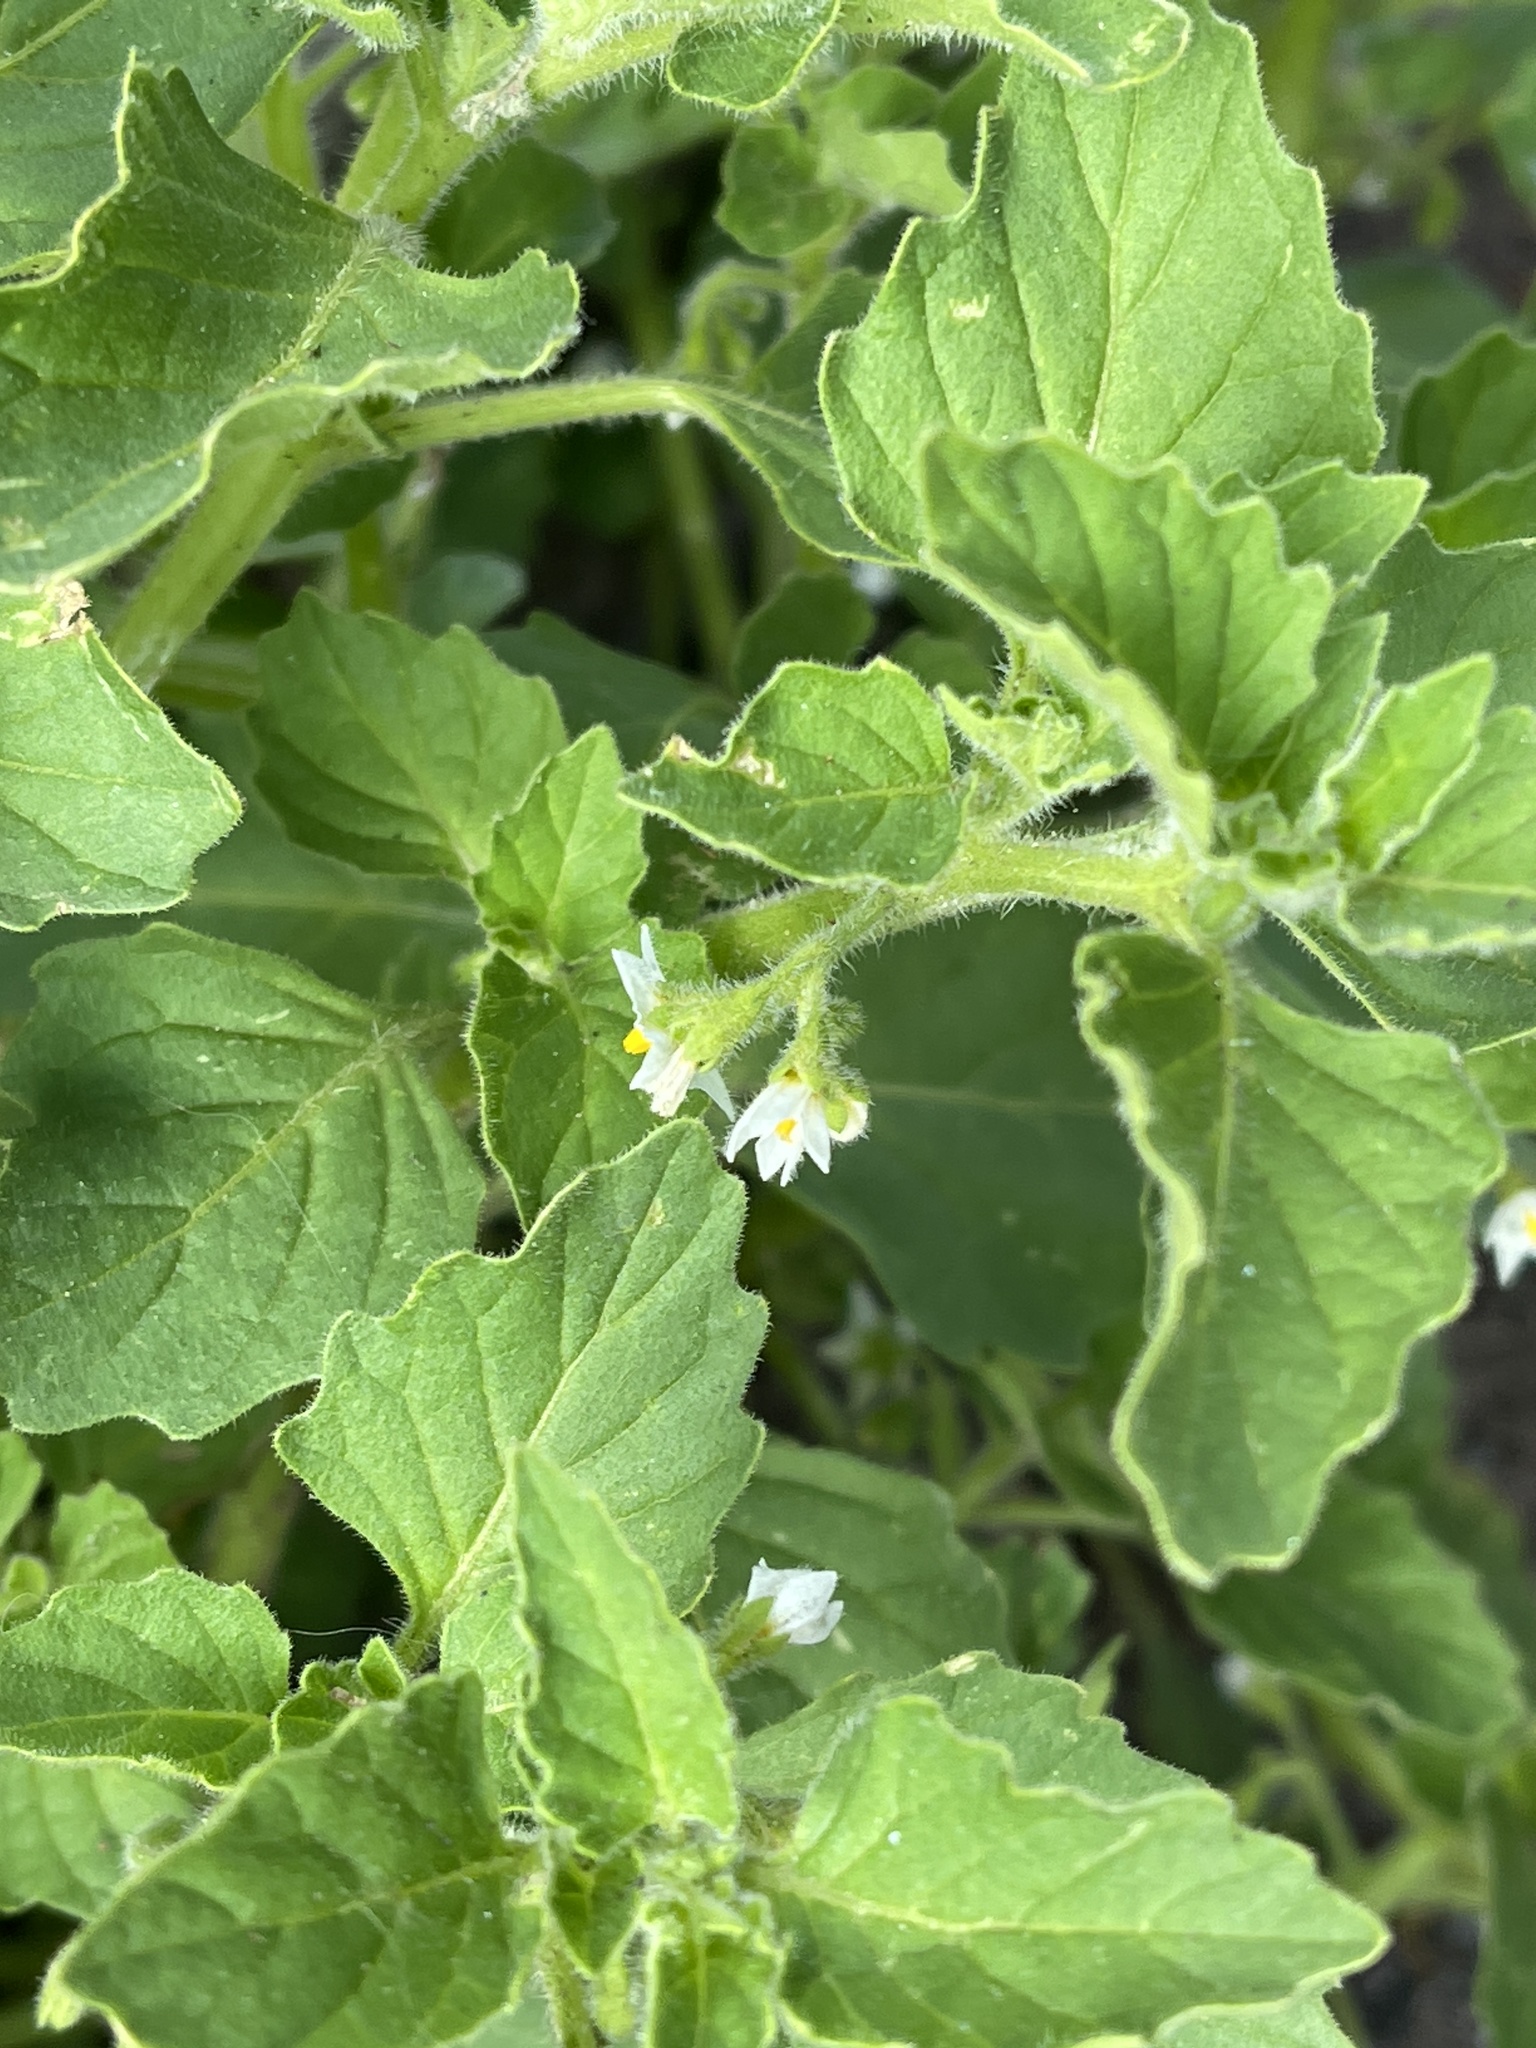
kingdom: Plantae
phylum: Tracheophyta
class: Magnoliopsida
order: Solanales
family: Solanaceae
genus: Solanum
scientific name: Solanum nitidibaccatum
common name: Hairy nightshade
